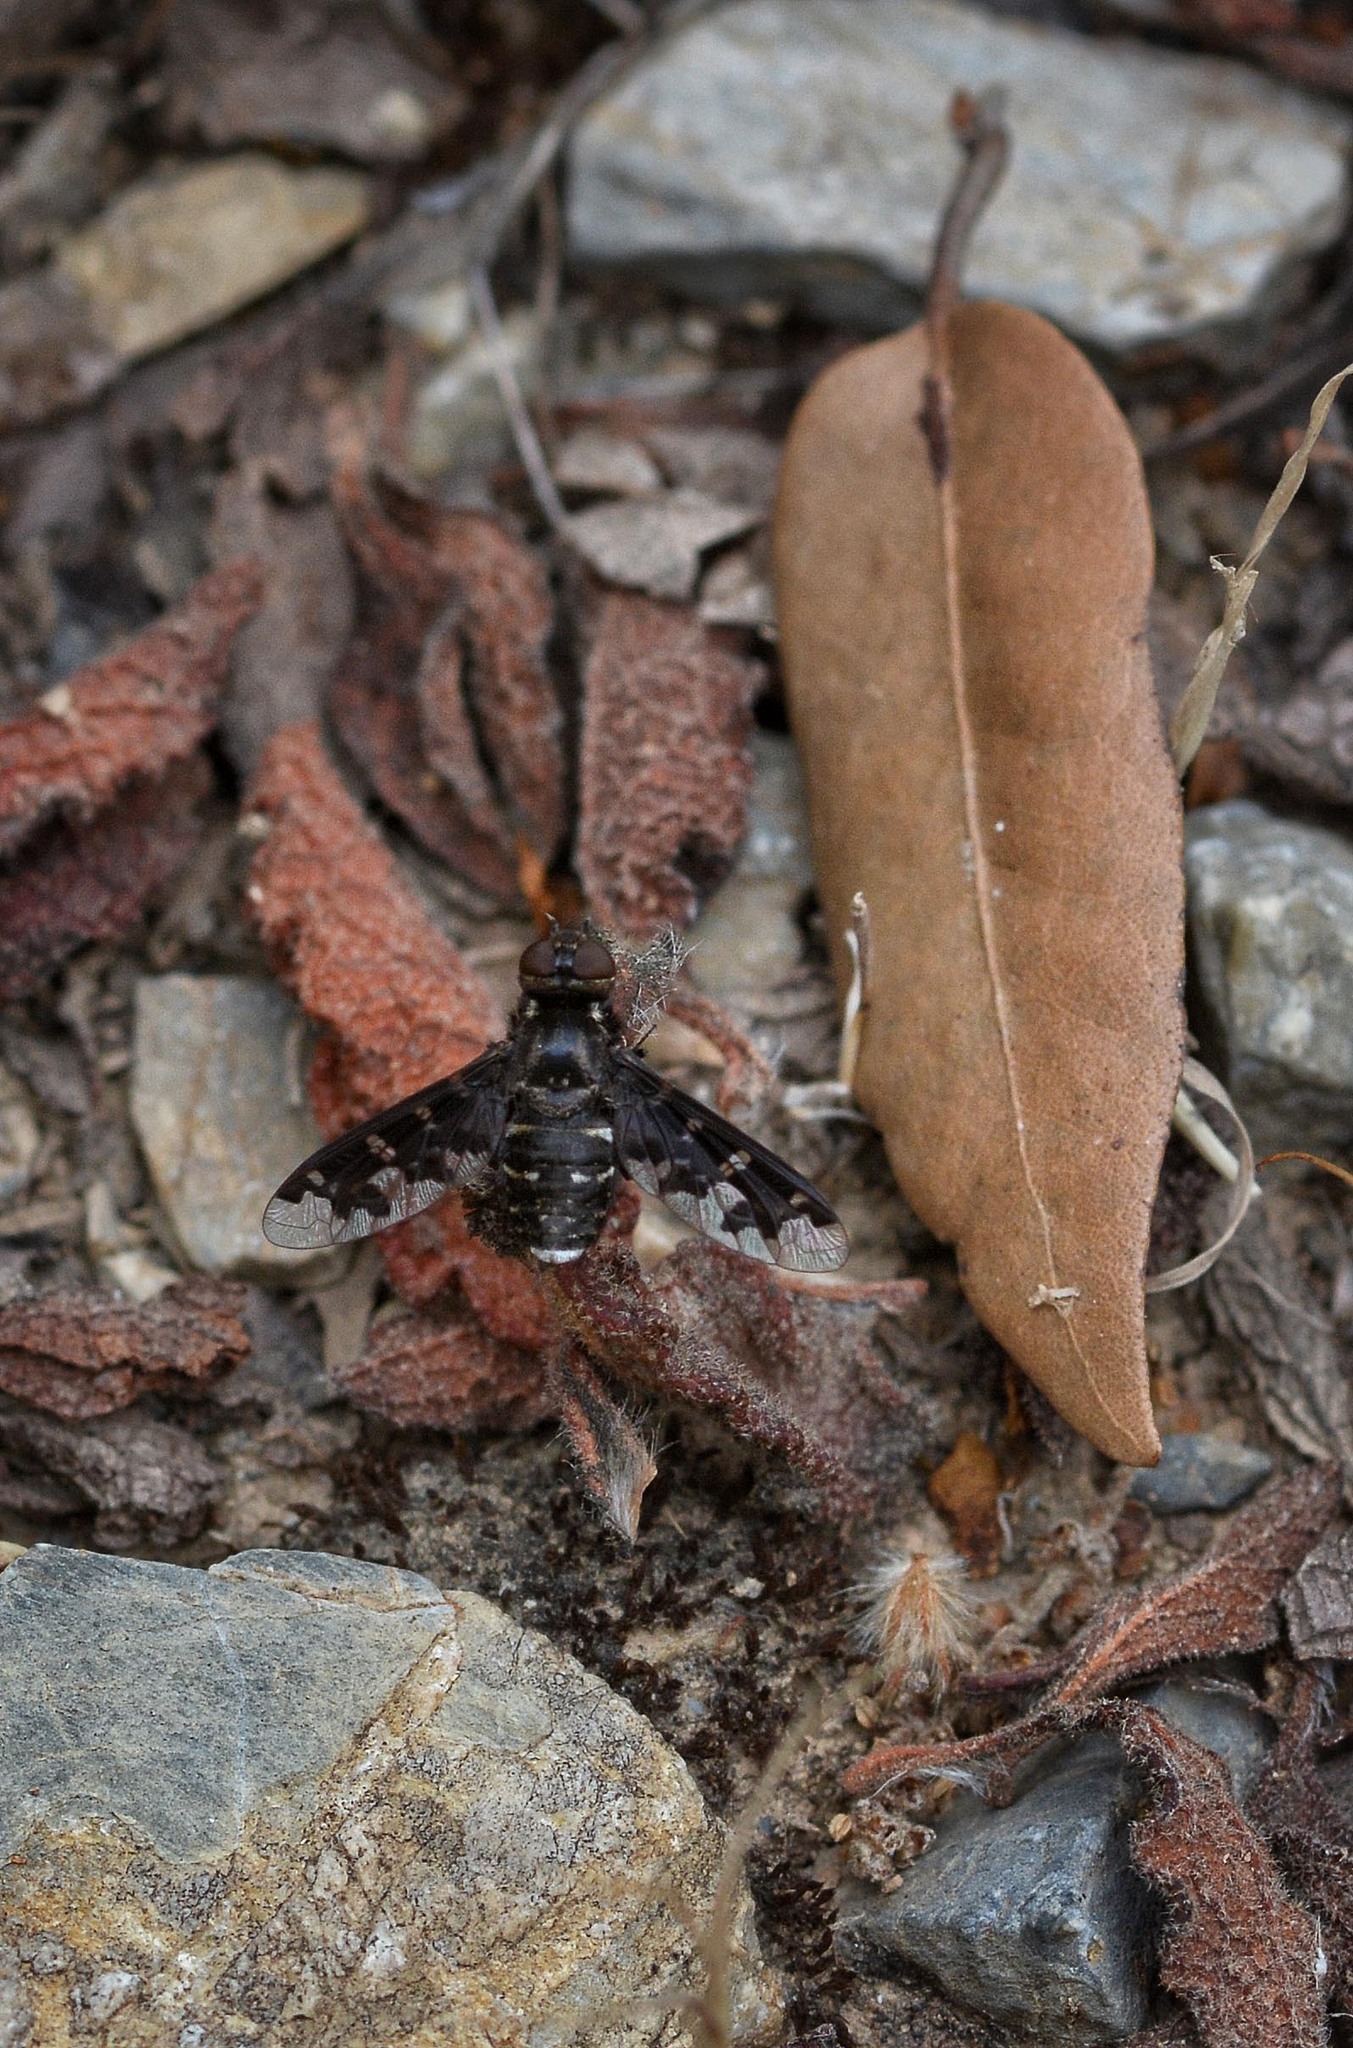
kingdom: Animalia
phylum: Arthropoda
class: Insecta
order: Diptera
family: Bombyliidae
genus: Exoprosopa
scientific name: Exoprosopa cleomene
